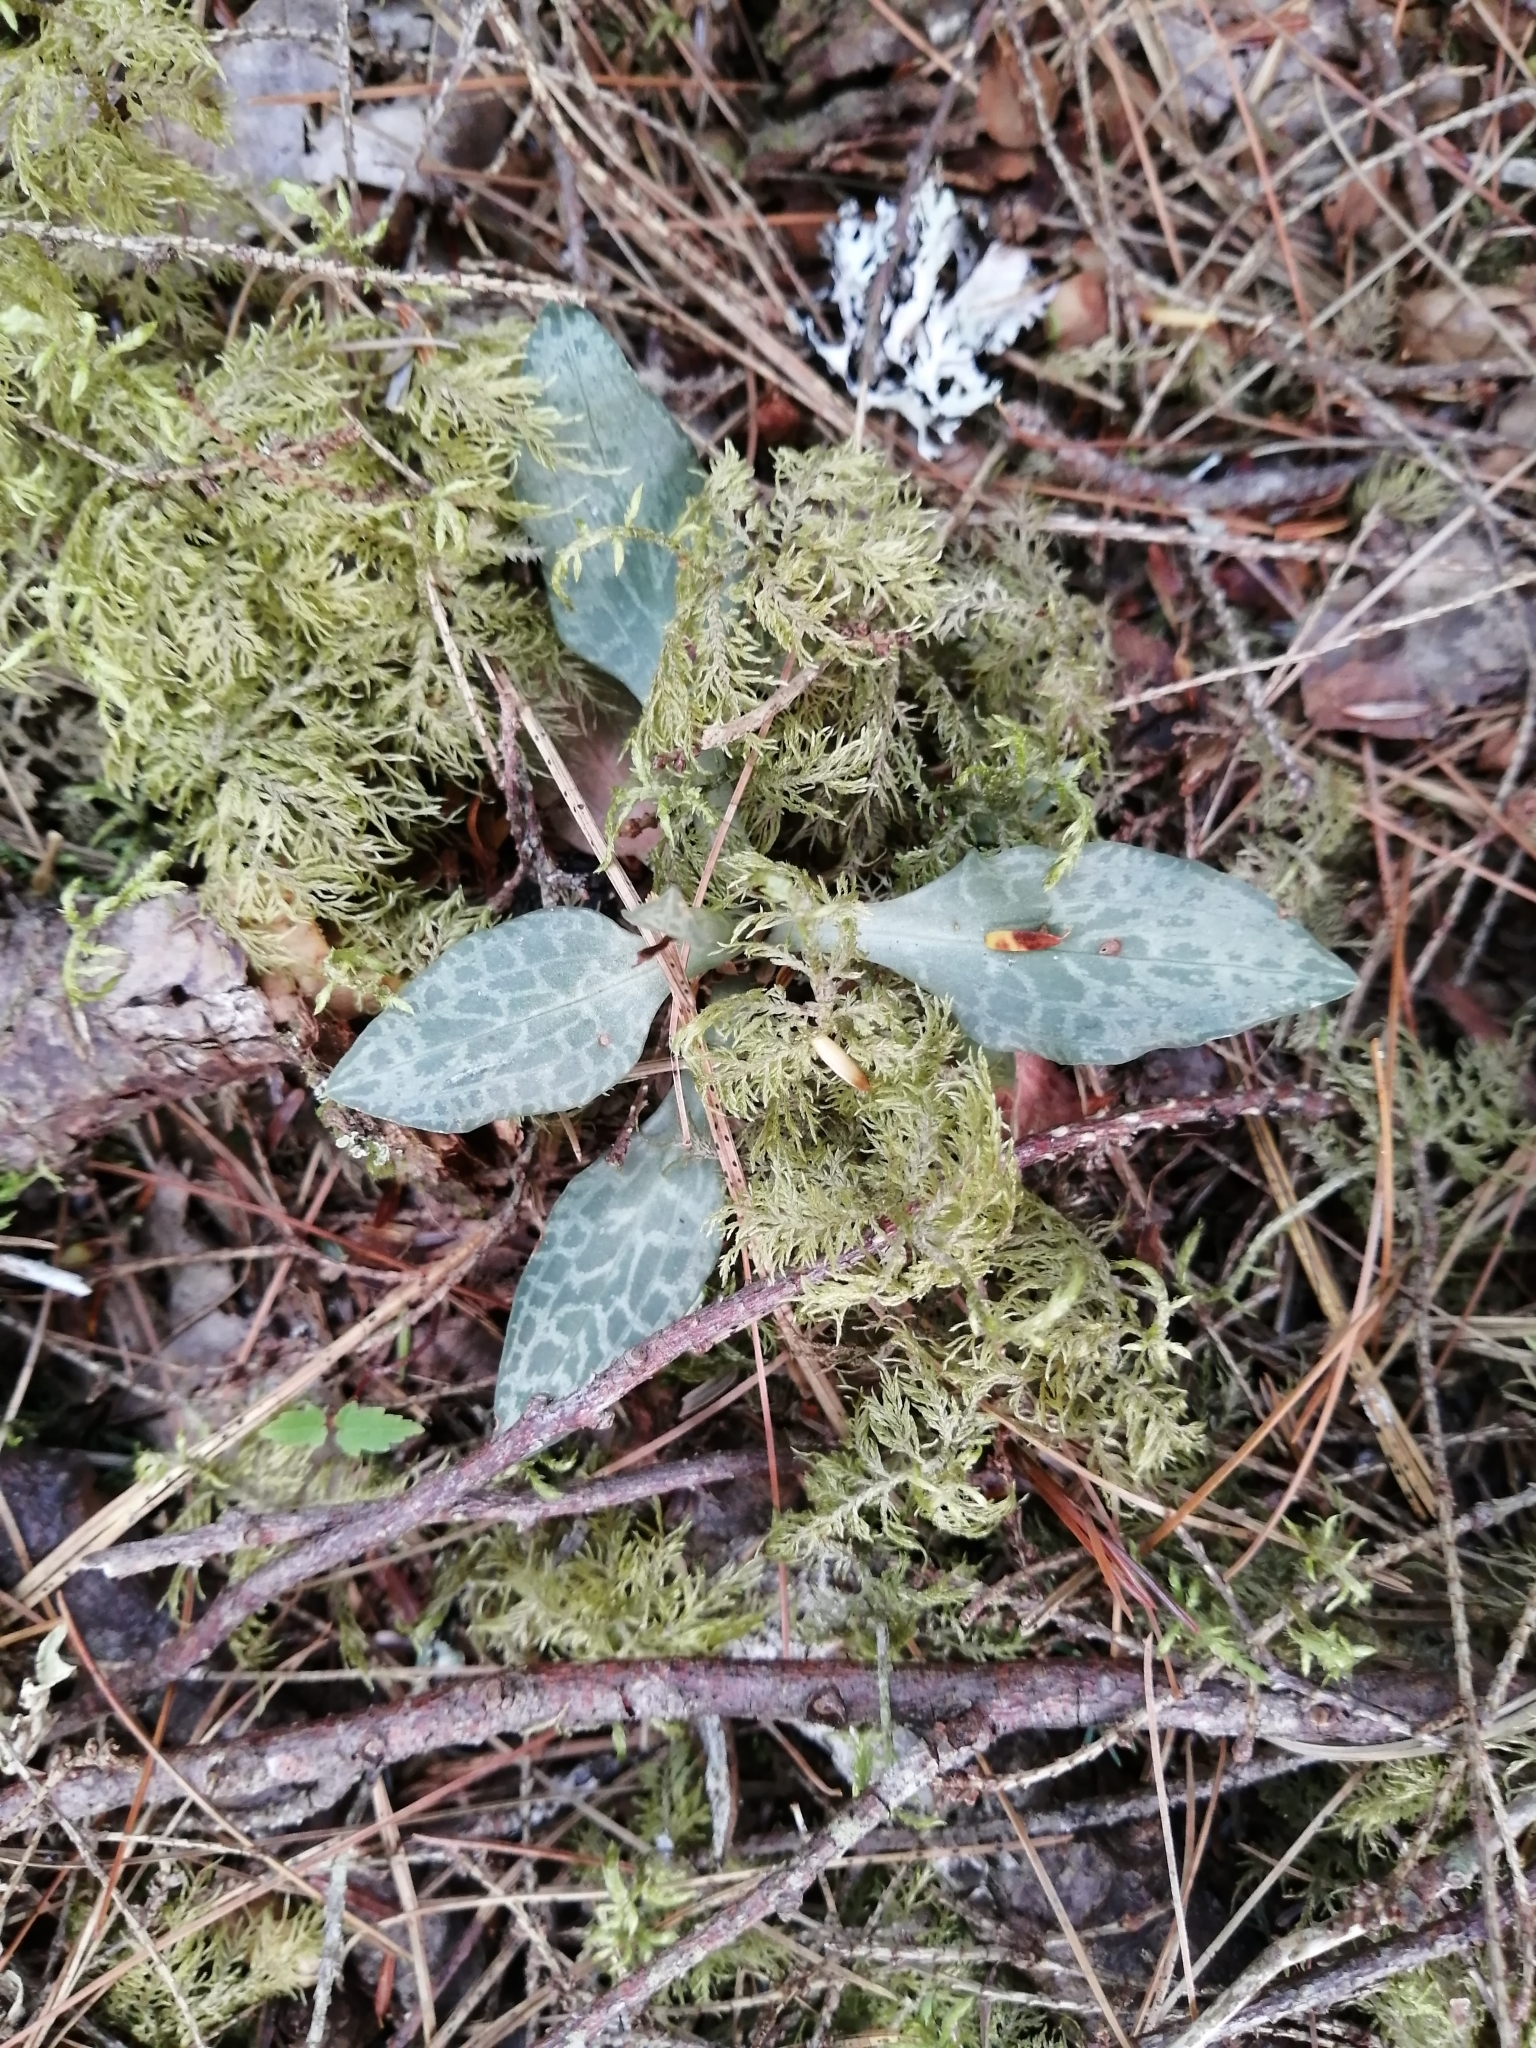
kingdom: Plantae
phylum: Tracheophyta
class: Liliopsida
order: Asparagales
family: Orchidaceae
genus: Goodyera
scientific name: Goodyera tesselata
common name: Checkered rattlesnake-plantain
